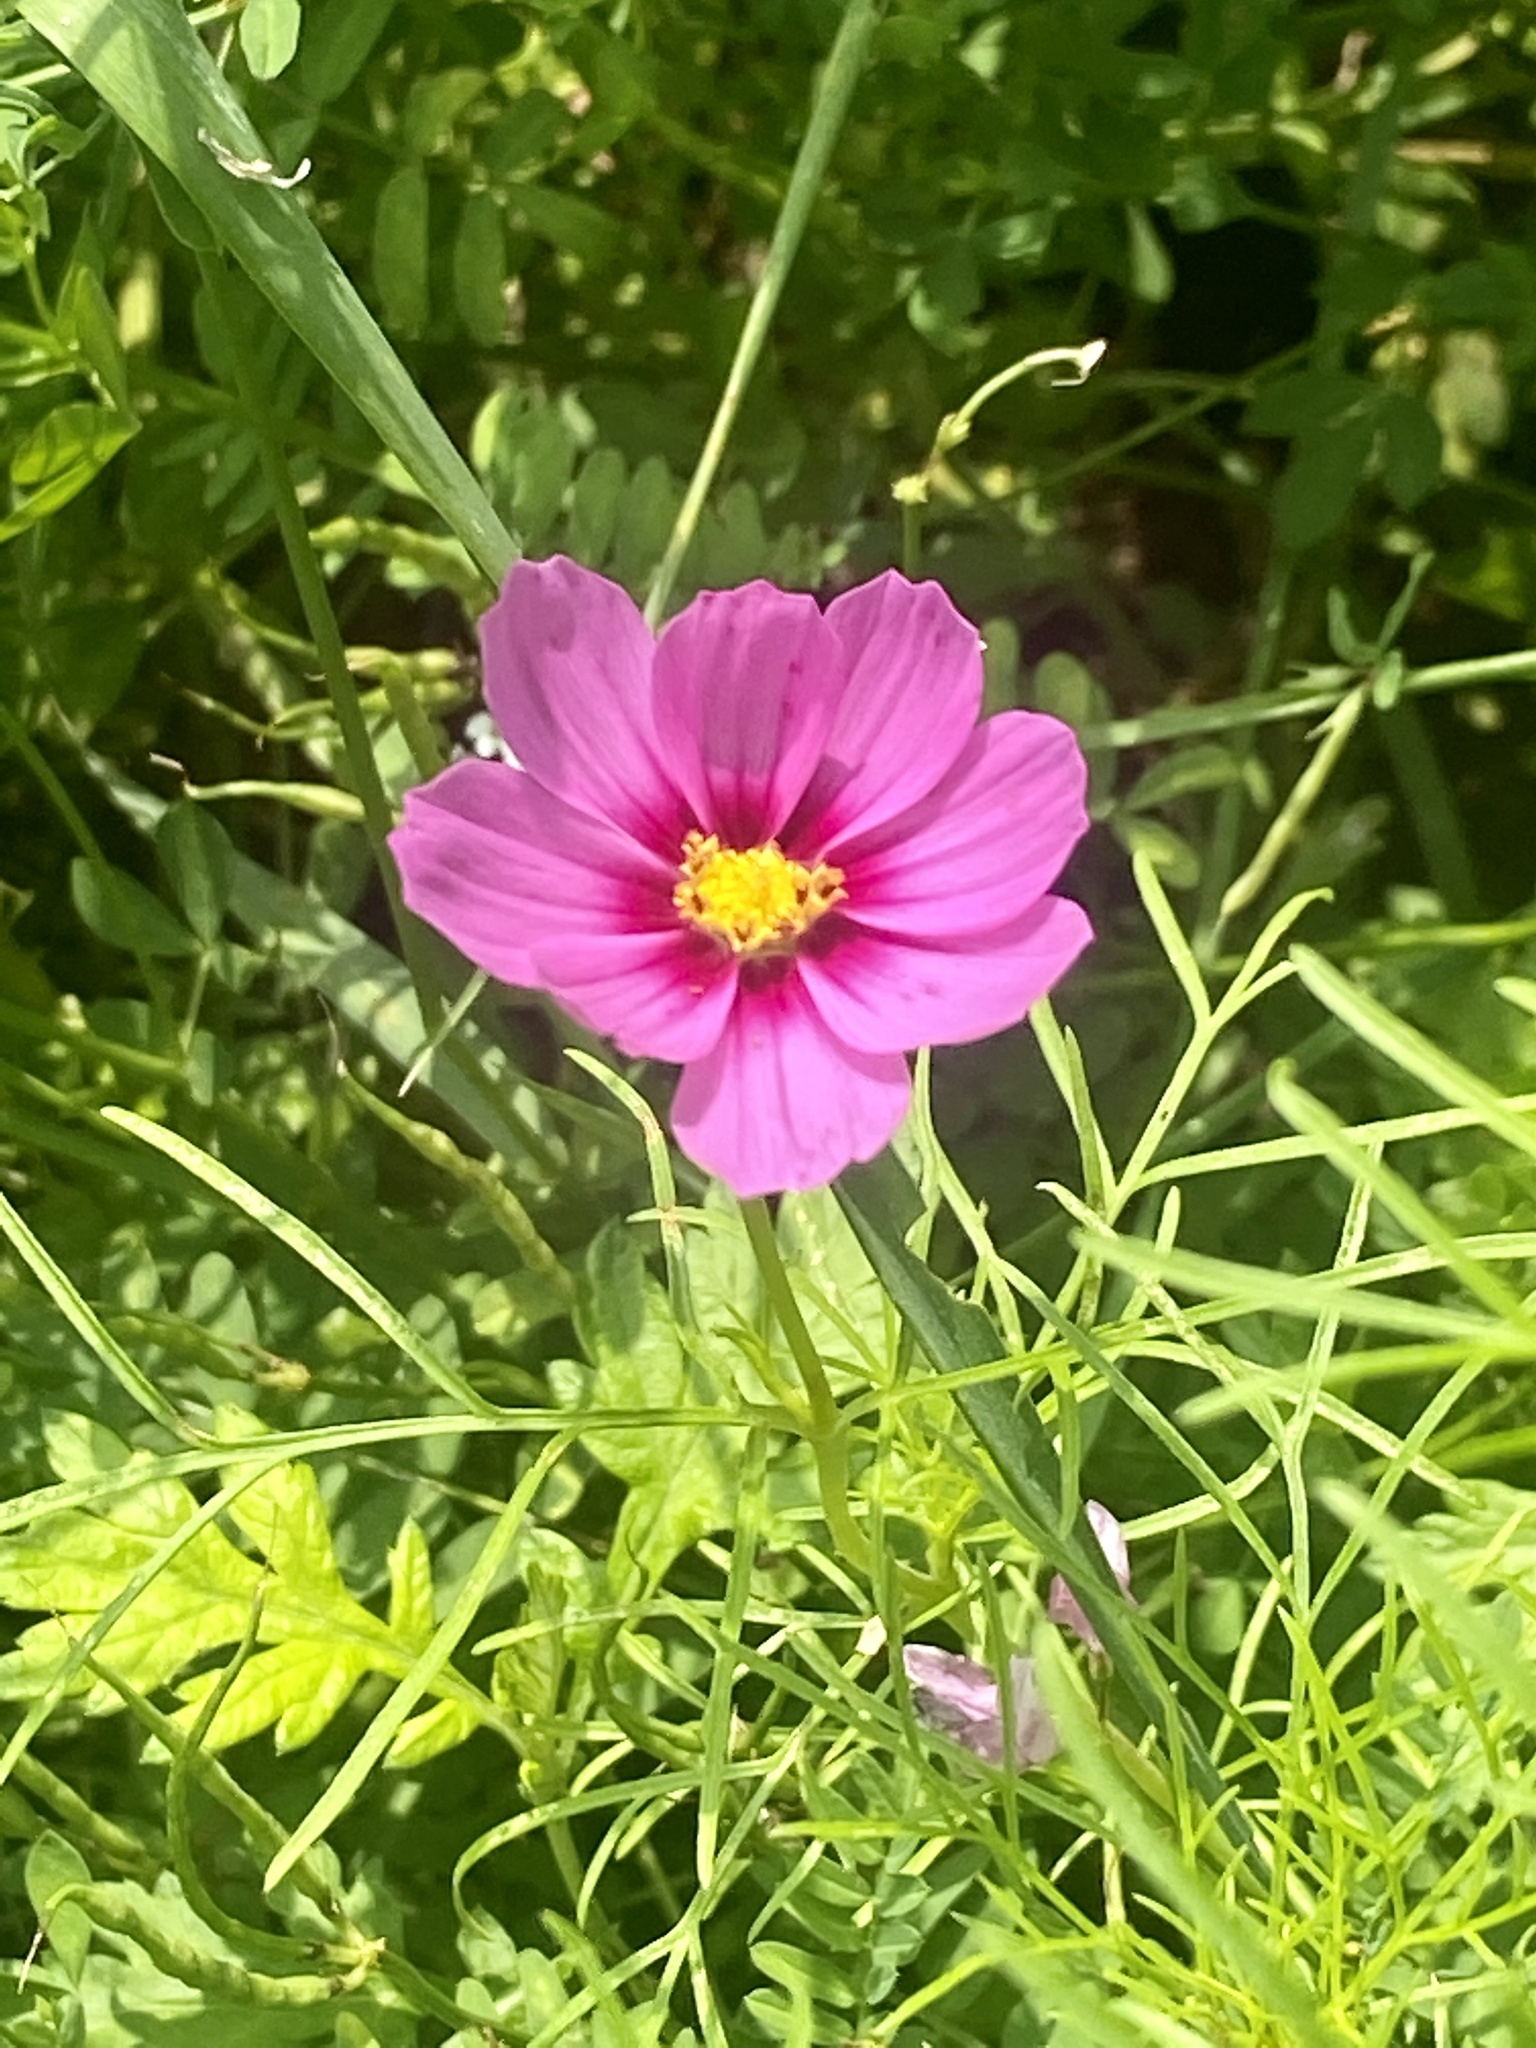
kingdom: Plantae
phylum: Tracheophyta
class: Magnoliopsida
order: Asterales
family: Asteraceae
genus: Cosmos
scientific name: Cosmos bipinnatus
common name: Garden cosmos
